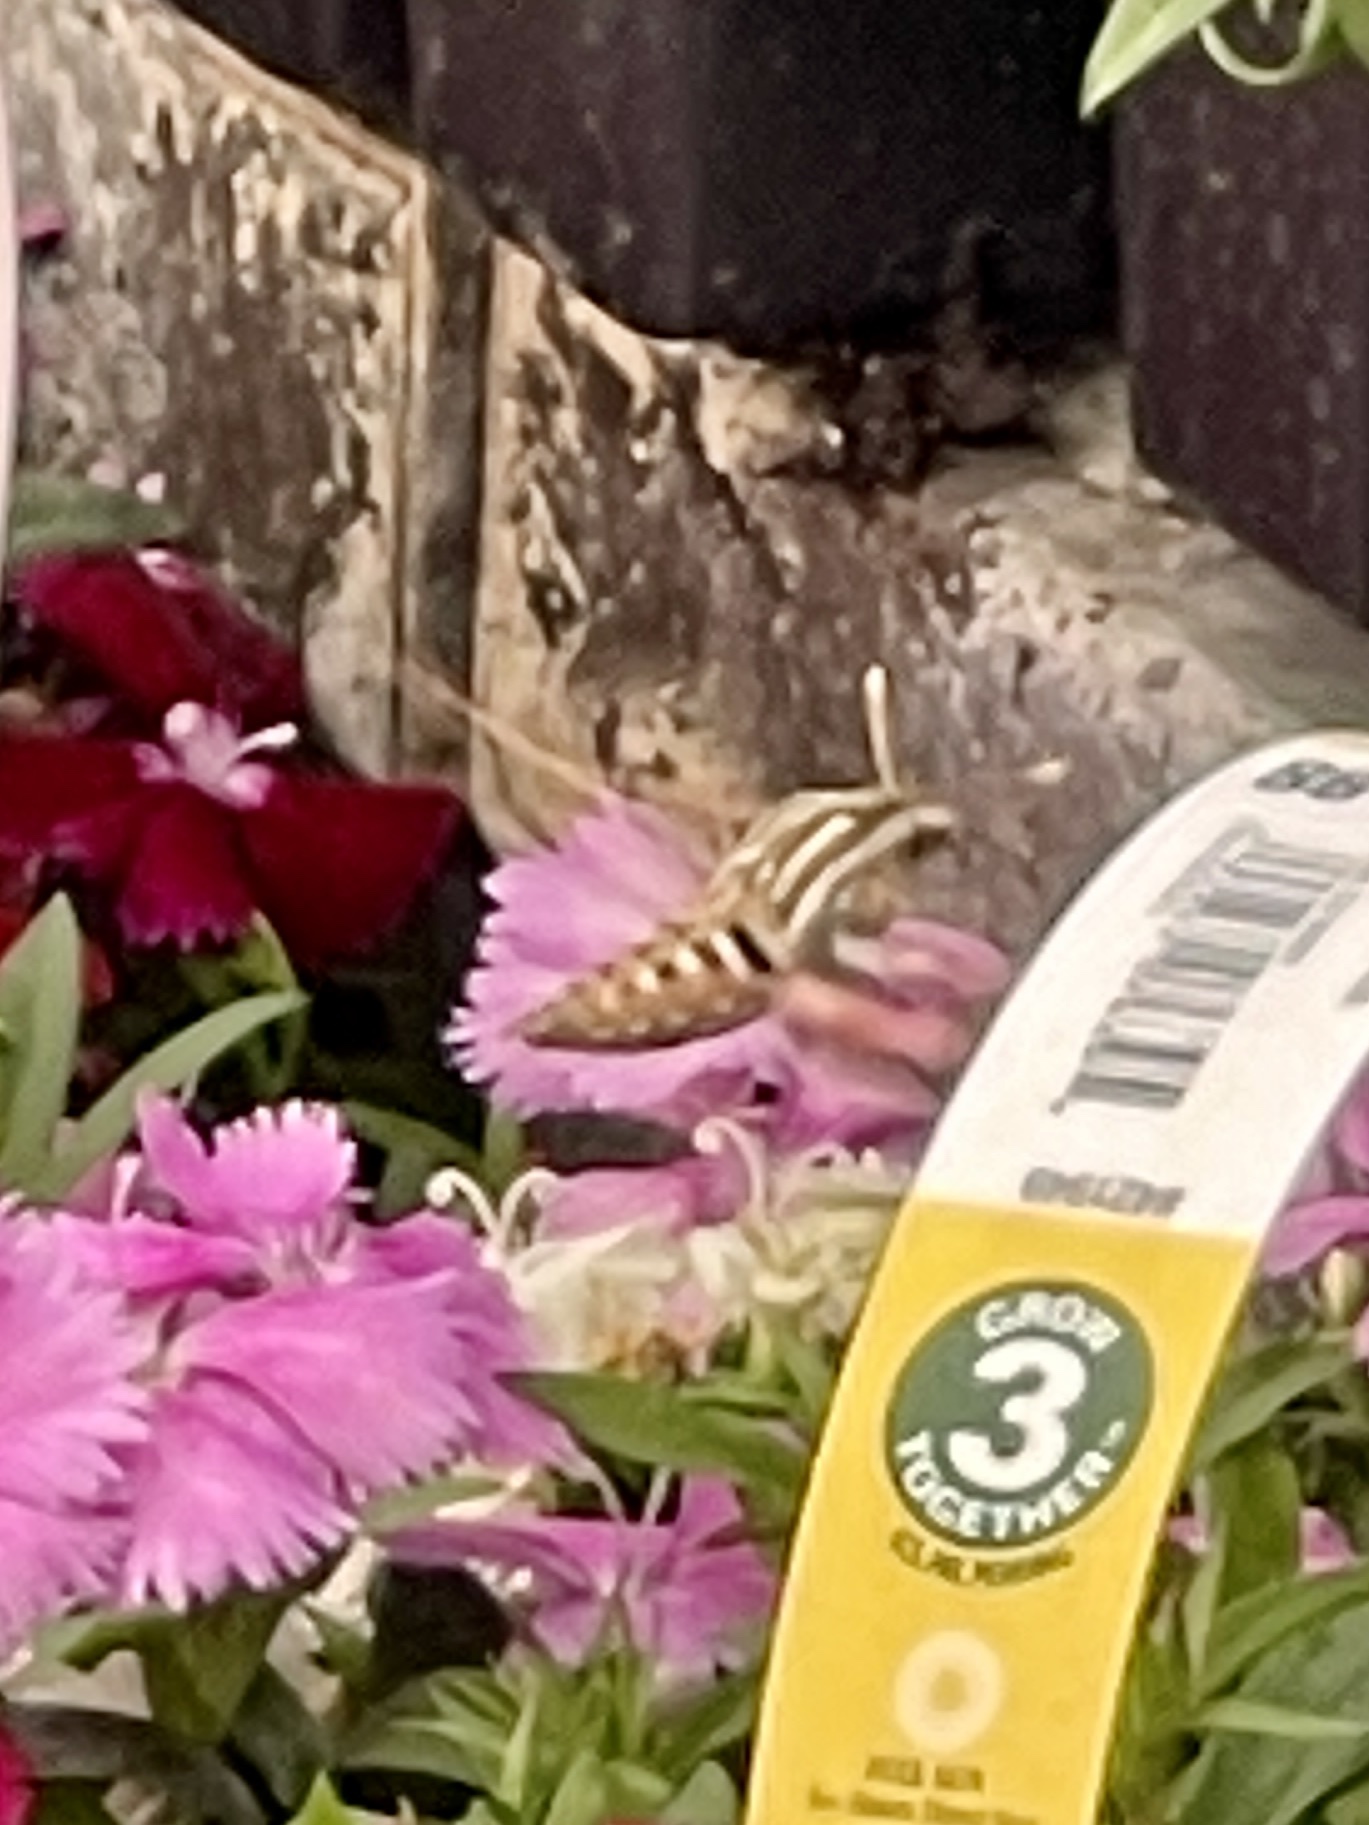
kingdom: Animalia
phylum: Arthropoda
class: Insecta
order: Lepidoptera
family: Sphingidae
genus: Hyles
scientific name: Hyles lineata
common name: White-lined sphinx
